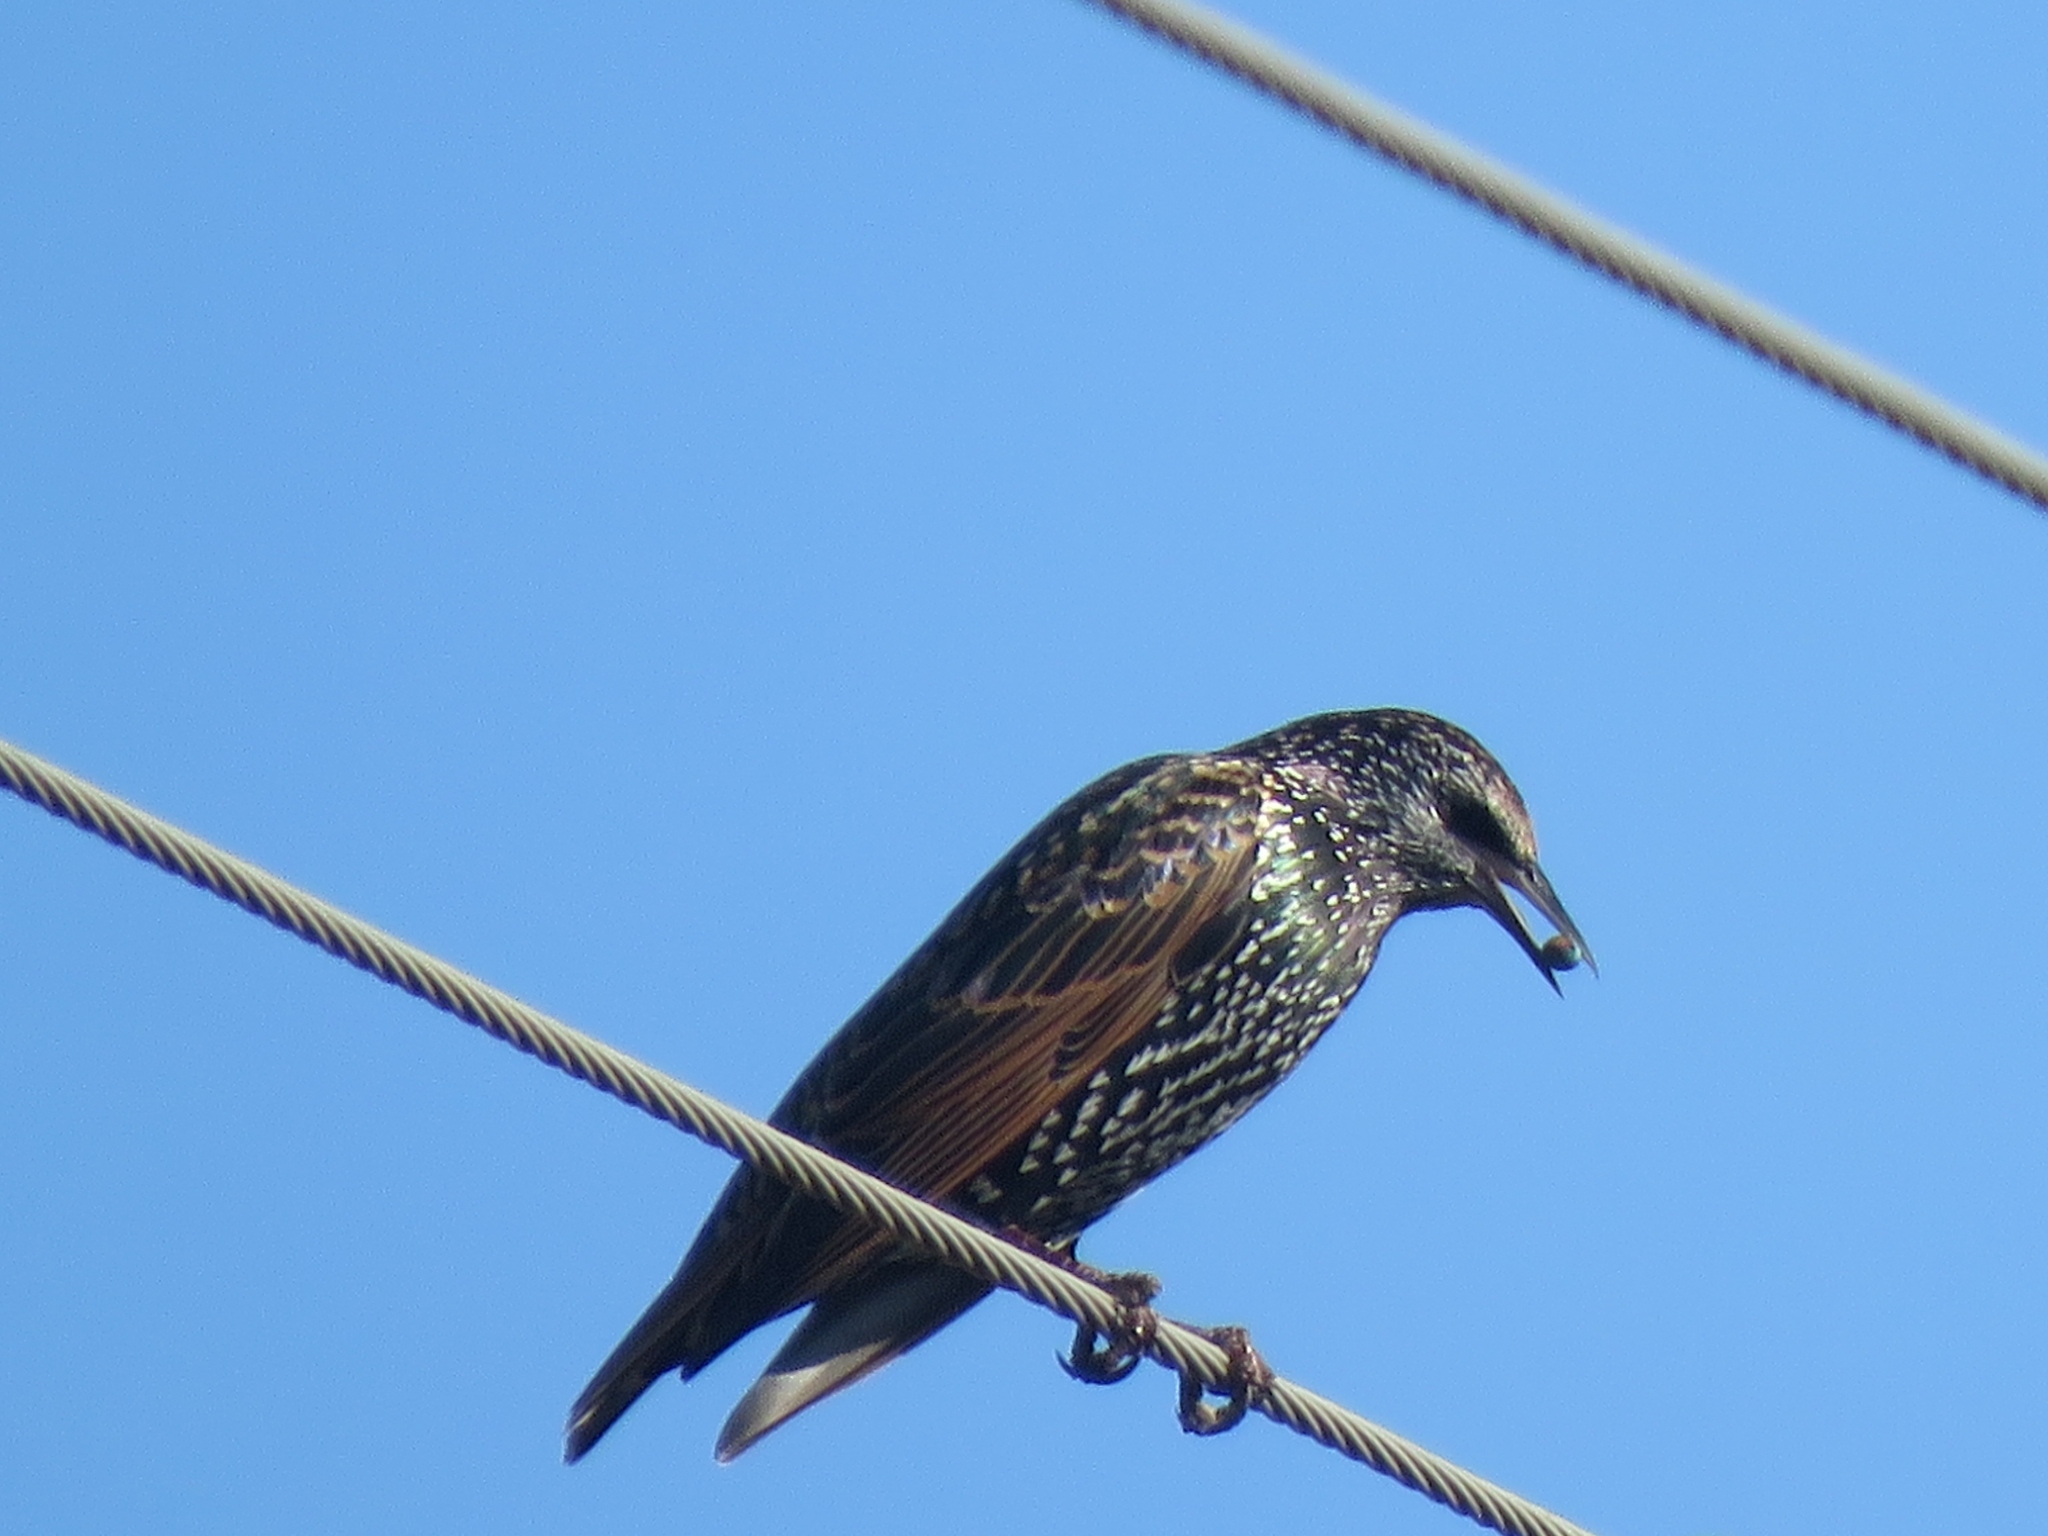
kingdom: Animalia
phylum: Chordata
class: Aves
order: Passeriformes
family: Sturnidae
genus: Sturnus
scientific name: Sturnus vulgaris
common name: Common starling
